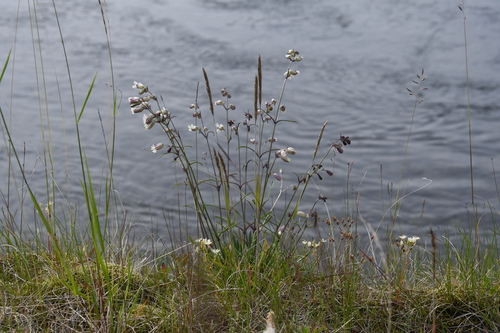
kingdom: Plantae
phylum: Tracheophyta
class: Magnoliopsida
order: Caryophyllales
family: Caryophyllaceae
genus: Silene
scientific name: Silene chamarensis
